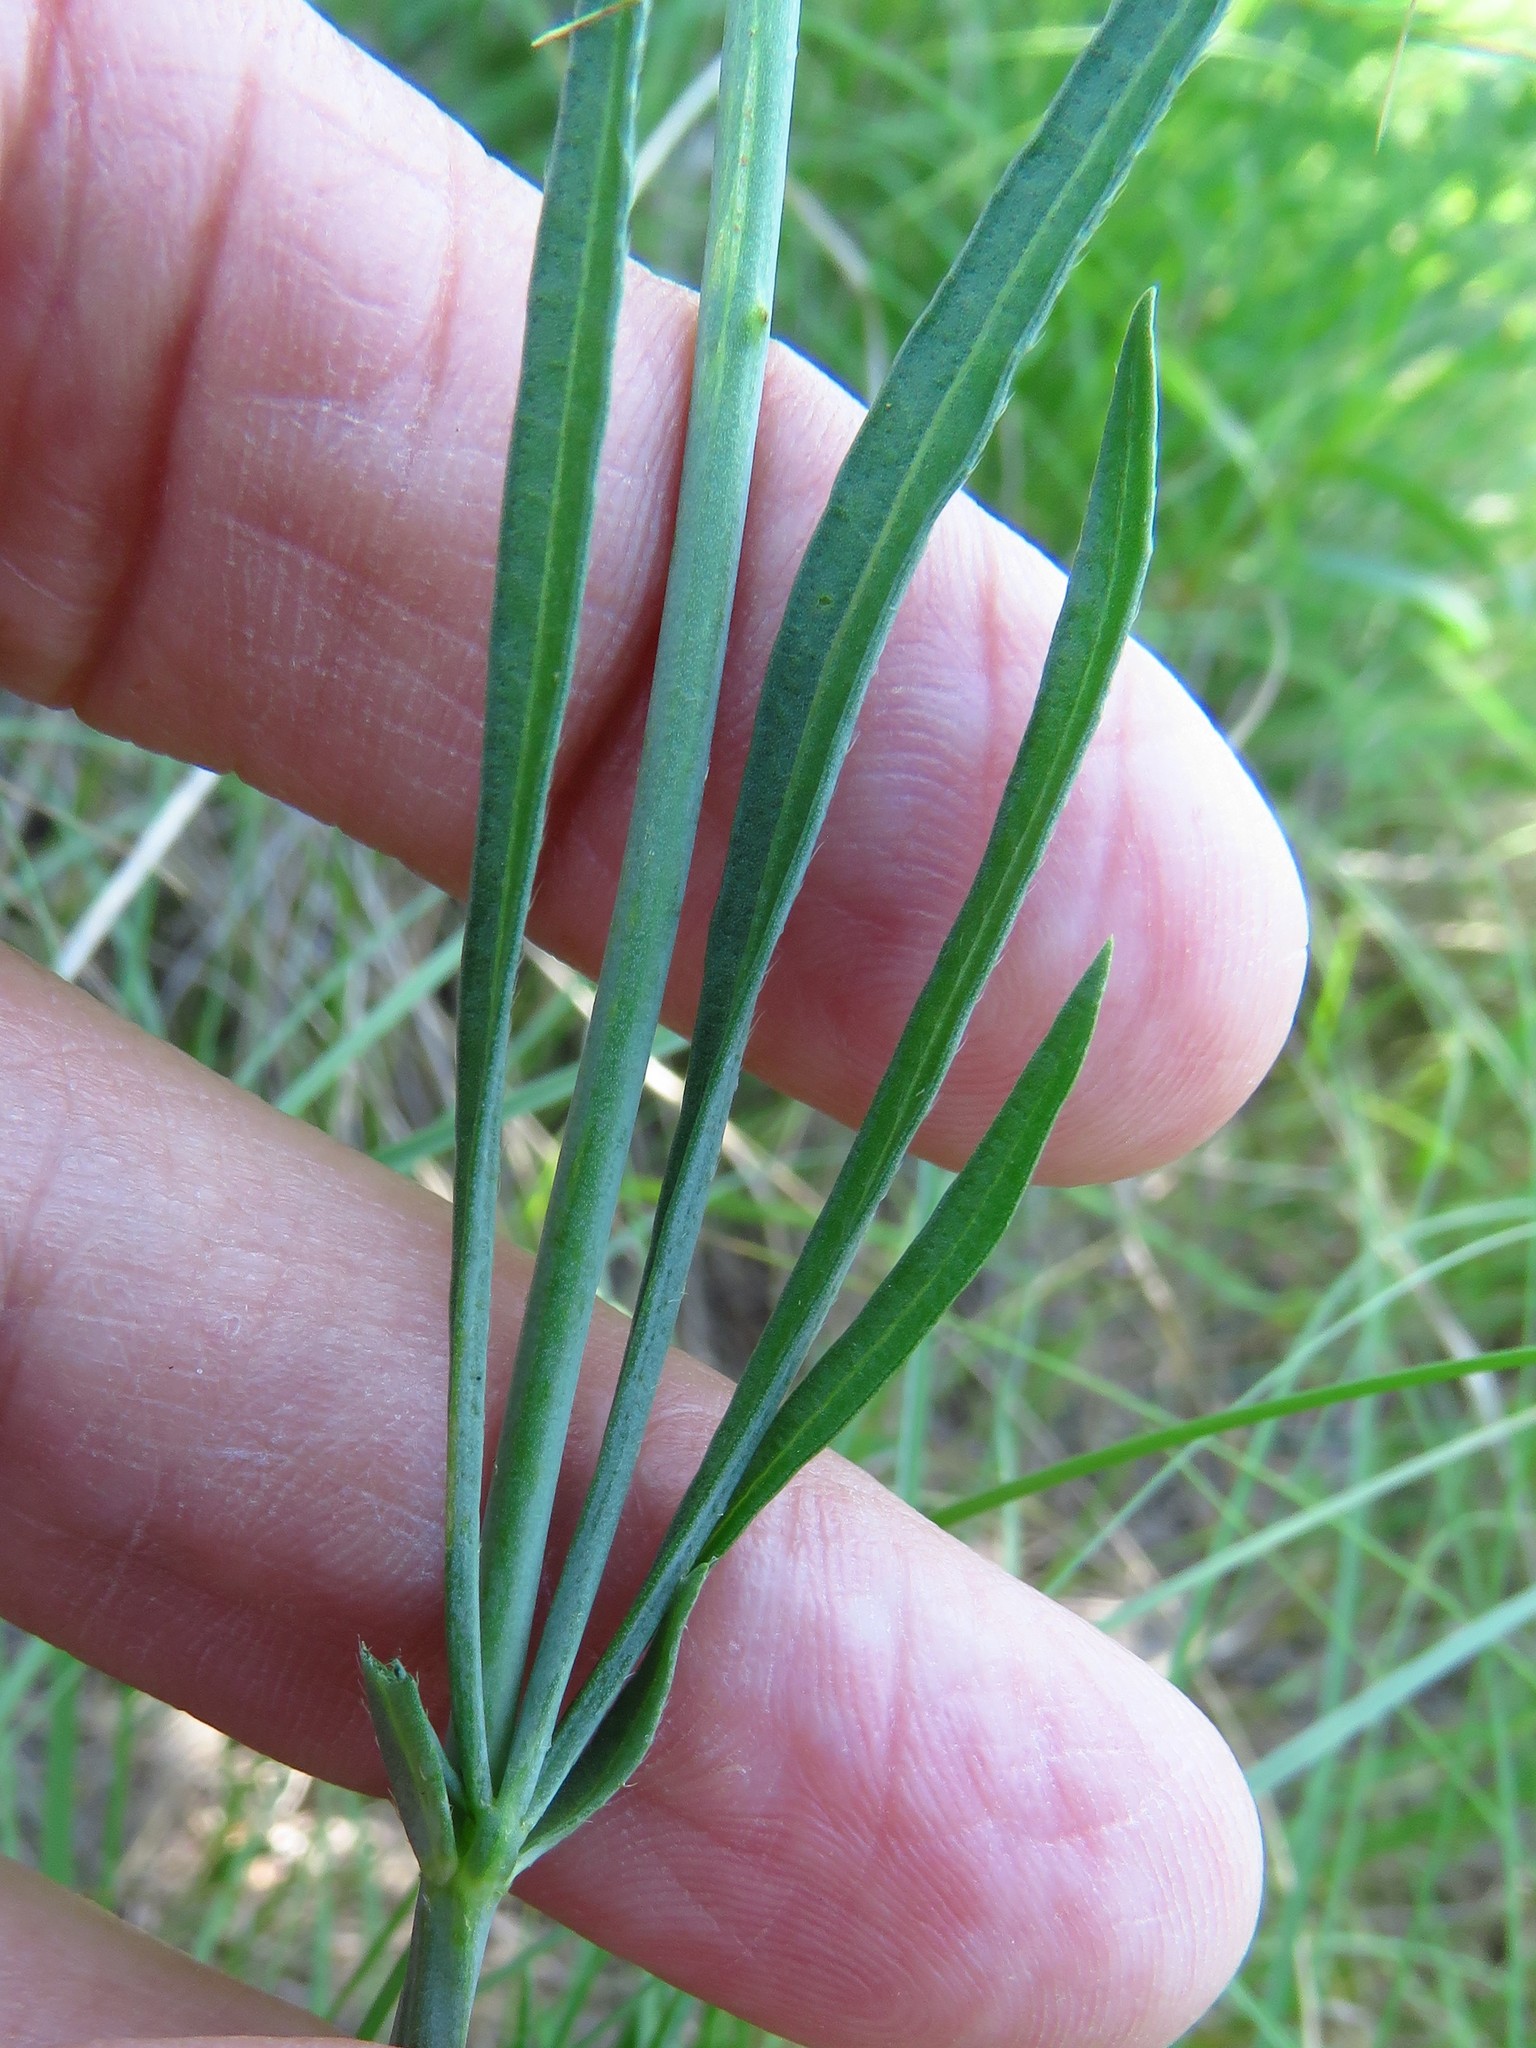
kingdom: Plantae
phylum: Tracheophyta
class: Magnoliopsida
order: Malvales
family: Malvaceae
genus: Callirhoe
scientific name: Callirhoe pedata
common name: Finger poppy-mallow
